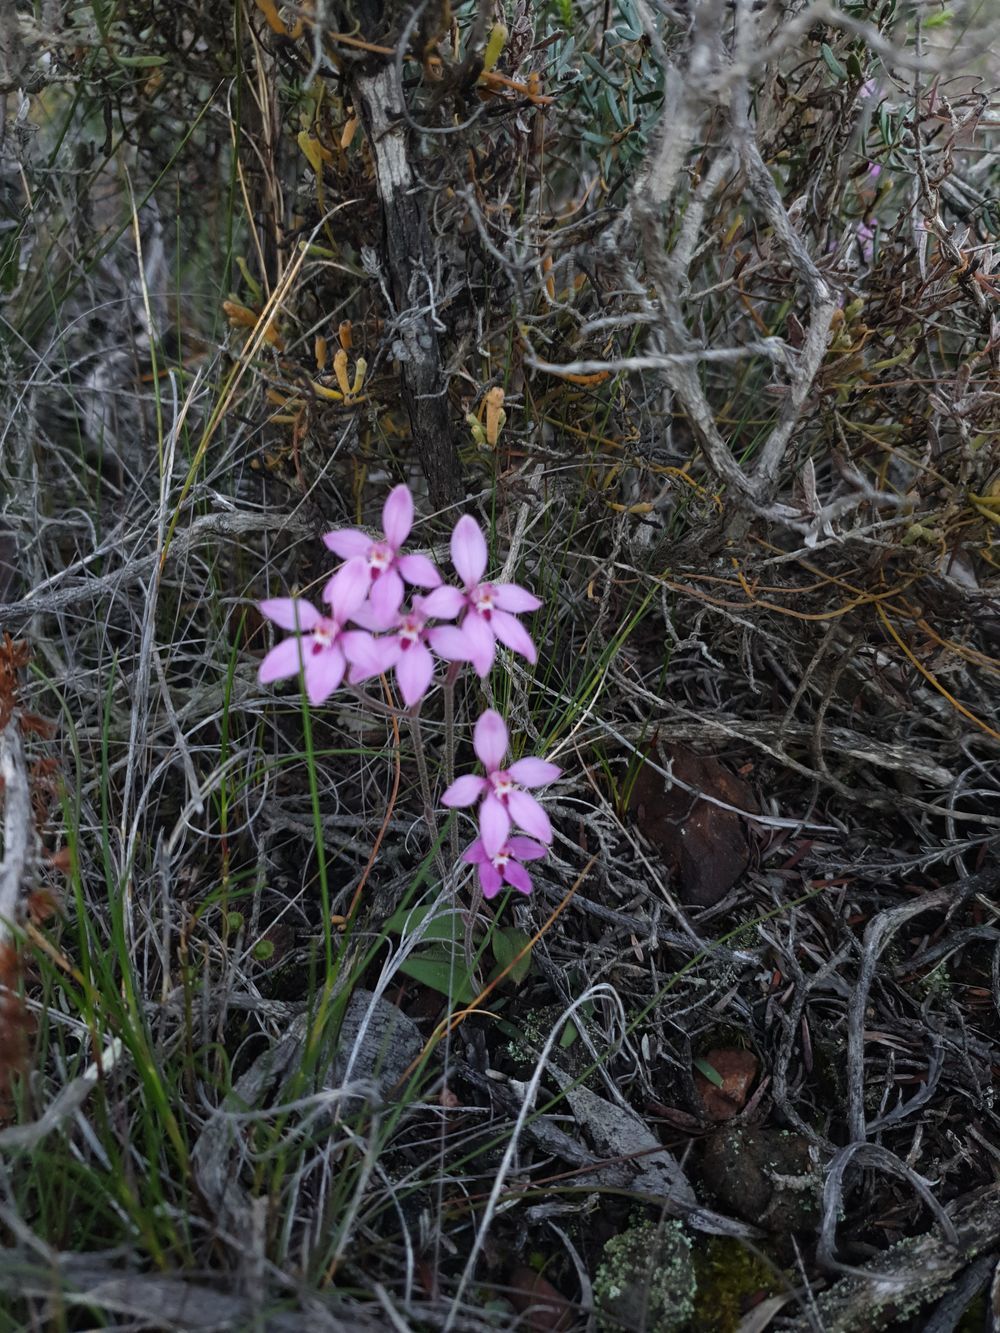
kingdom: Plantae
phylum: Tracheophyta
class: Liliopsida
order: Asparagales
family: Orchidaceae
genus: Caladenia
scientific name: Caladenia reptans
